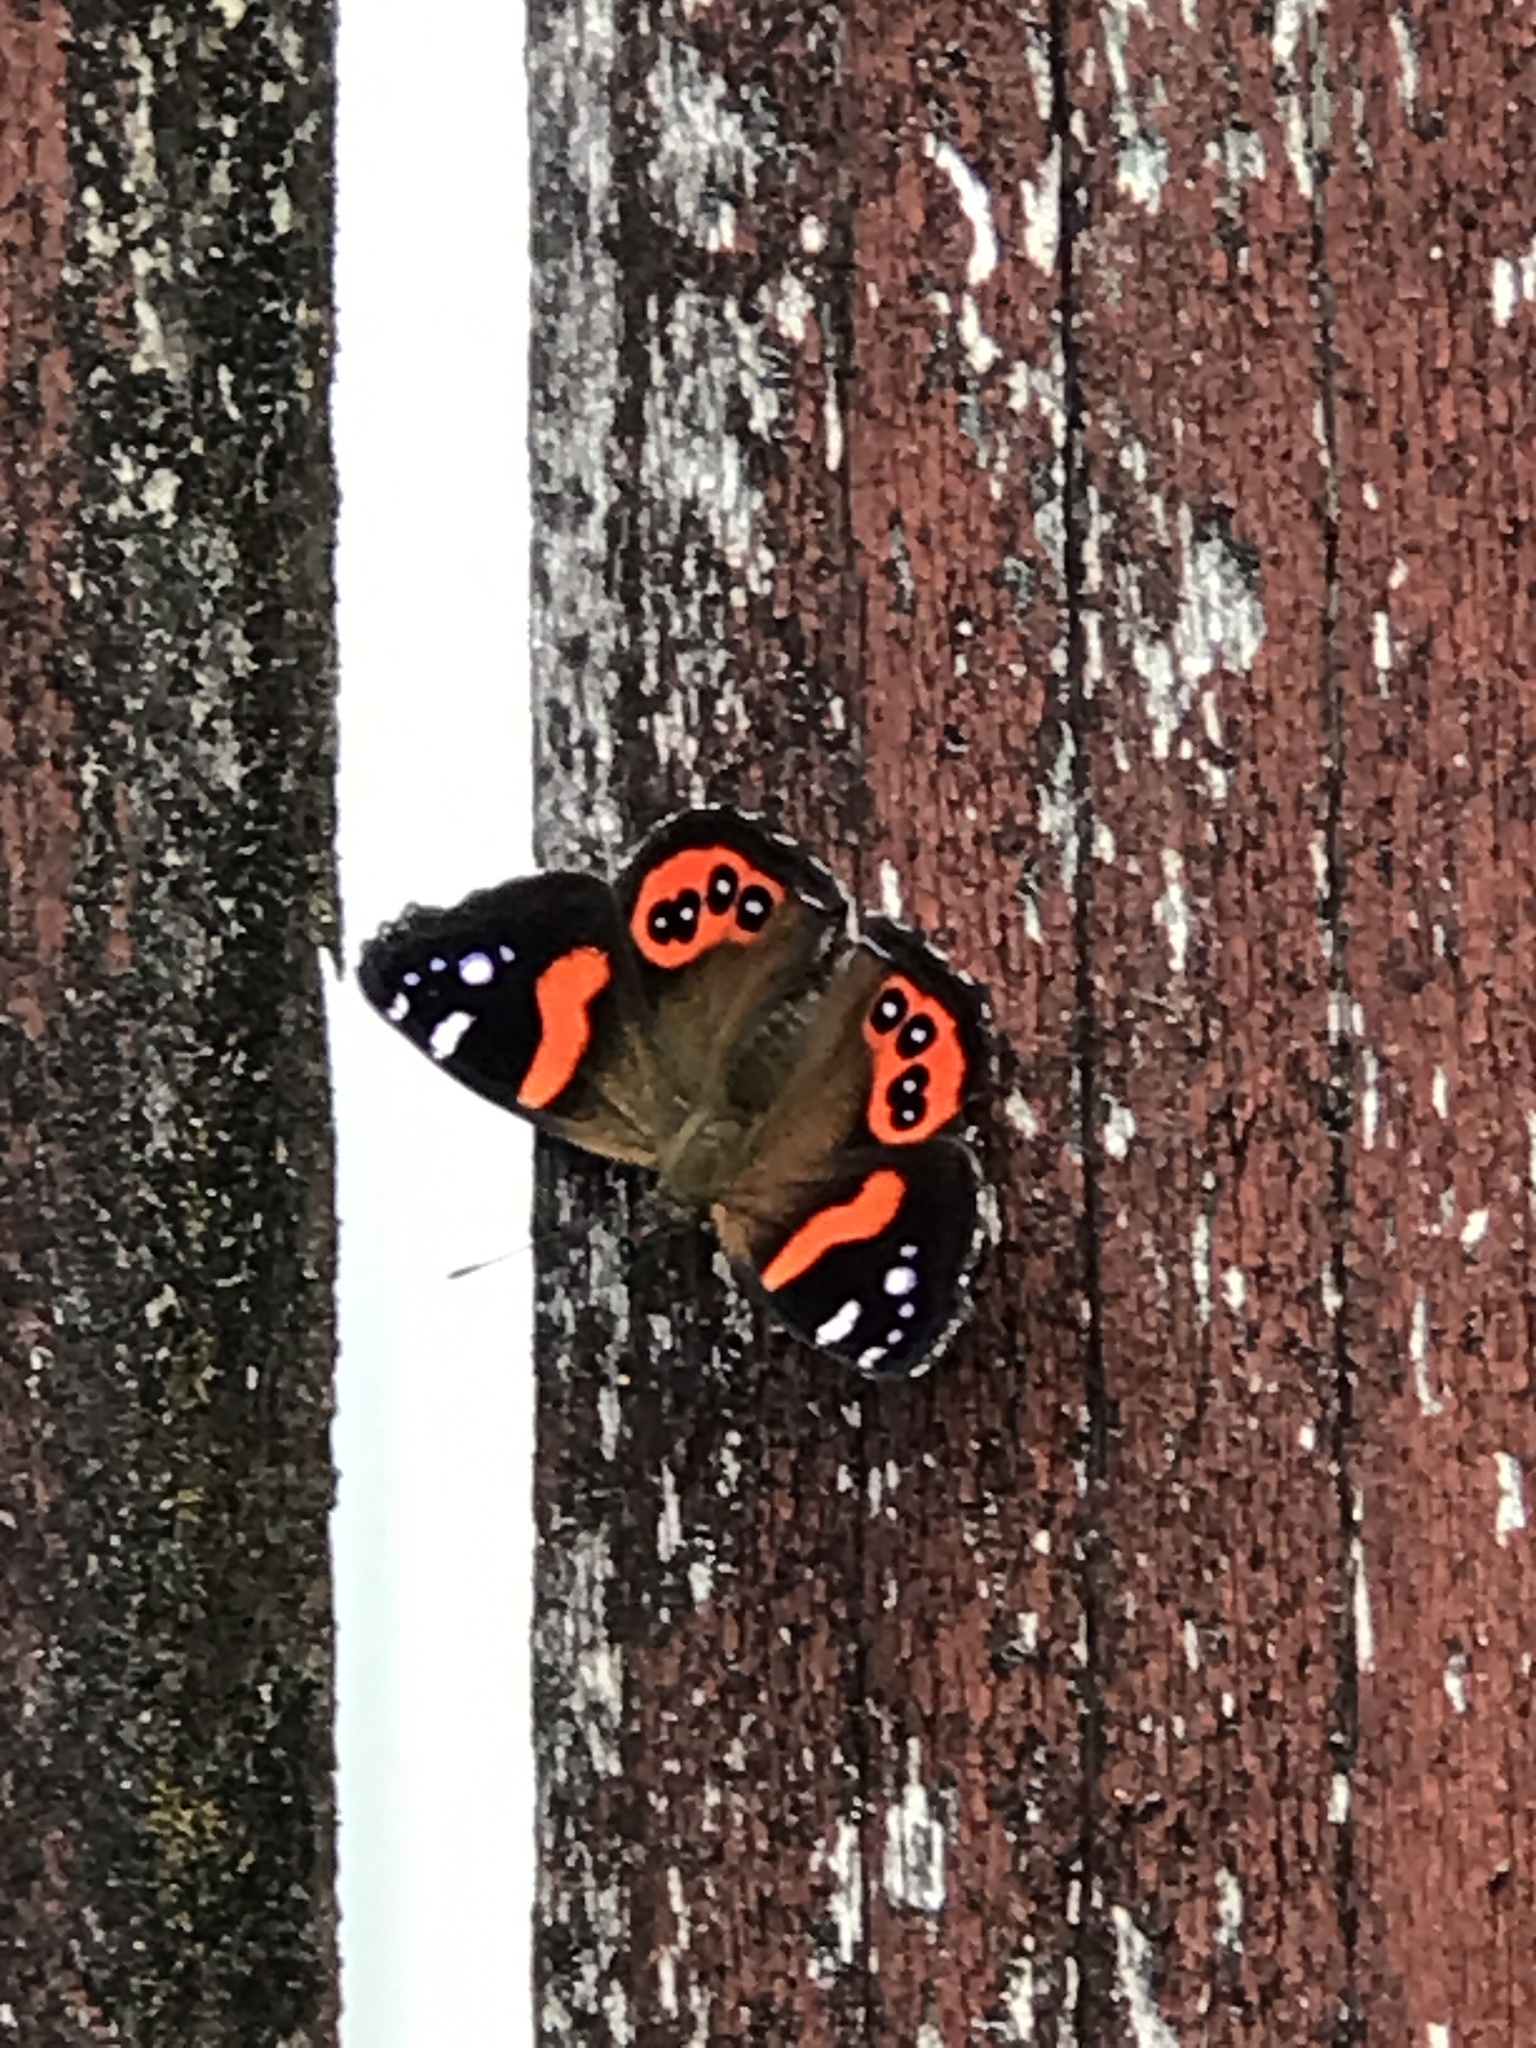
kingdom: Animalia
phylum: Arthropoda
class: Insecta
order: Lepidoptera
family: Nymphalidae
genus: Vanessa
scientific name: Vanessa gonerilla
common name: New zealand red admiral
